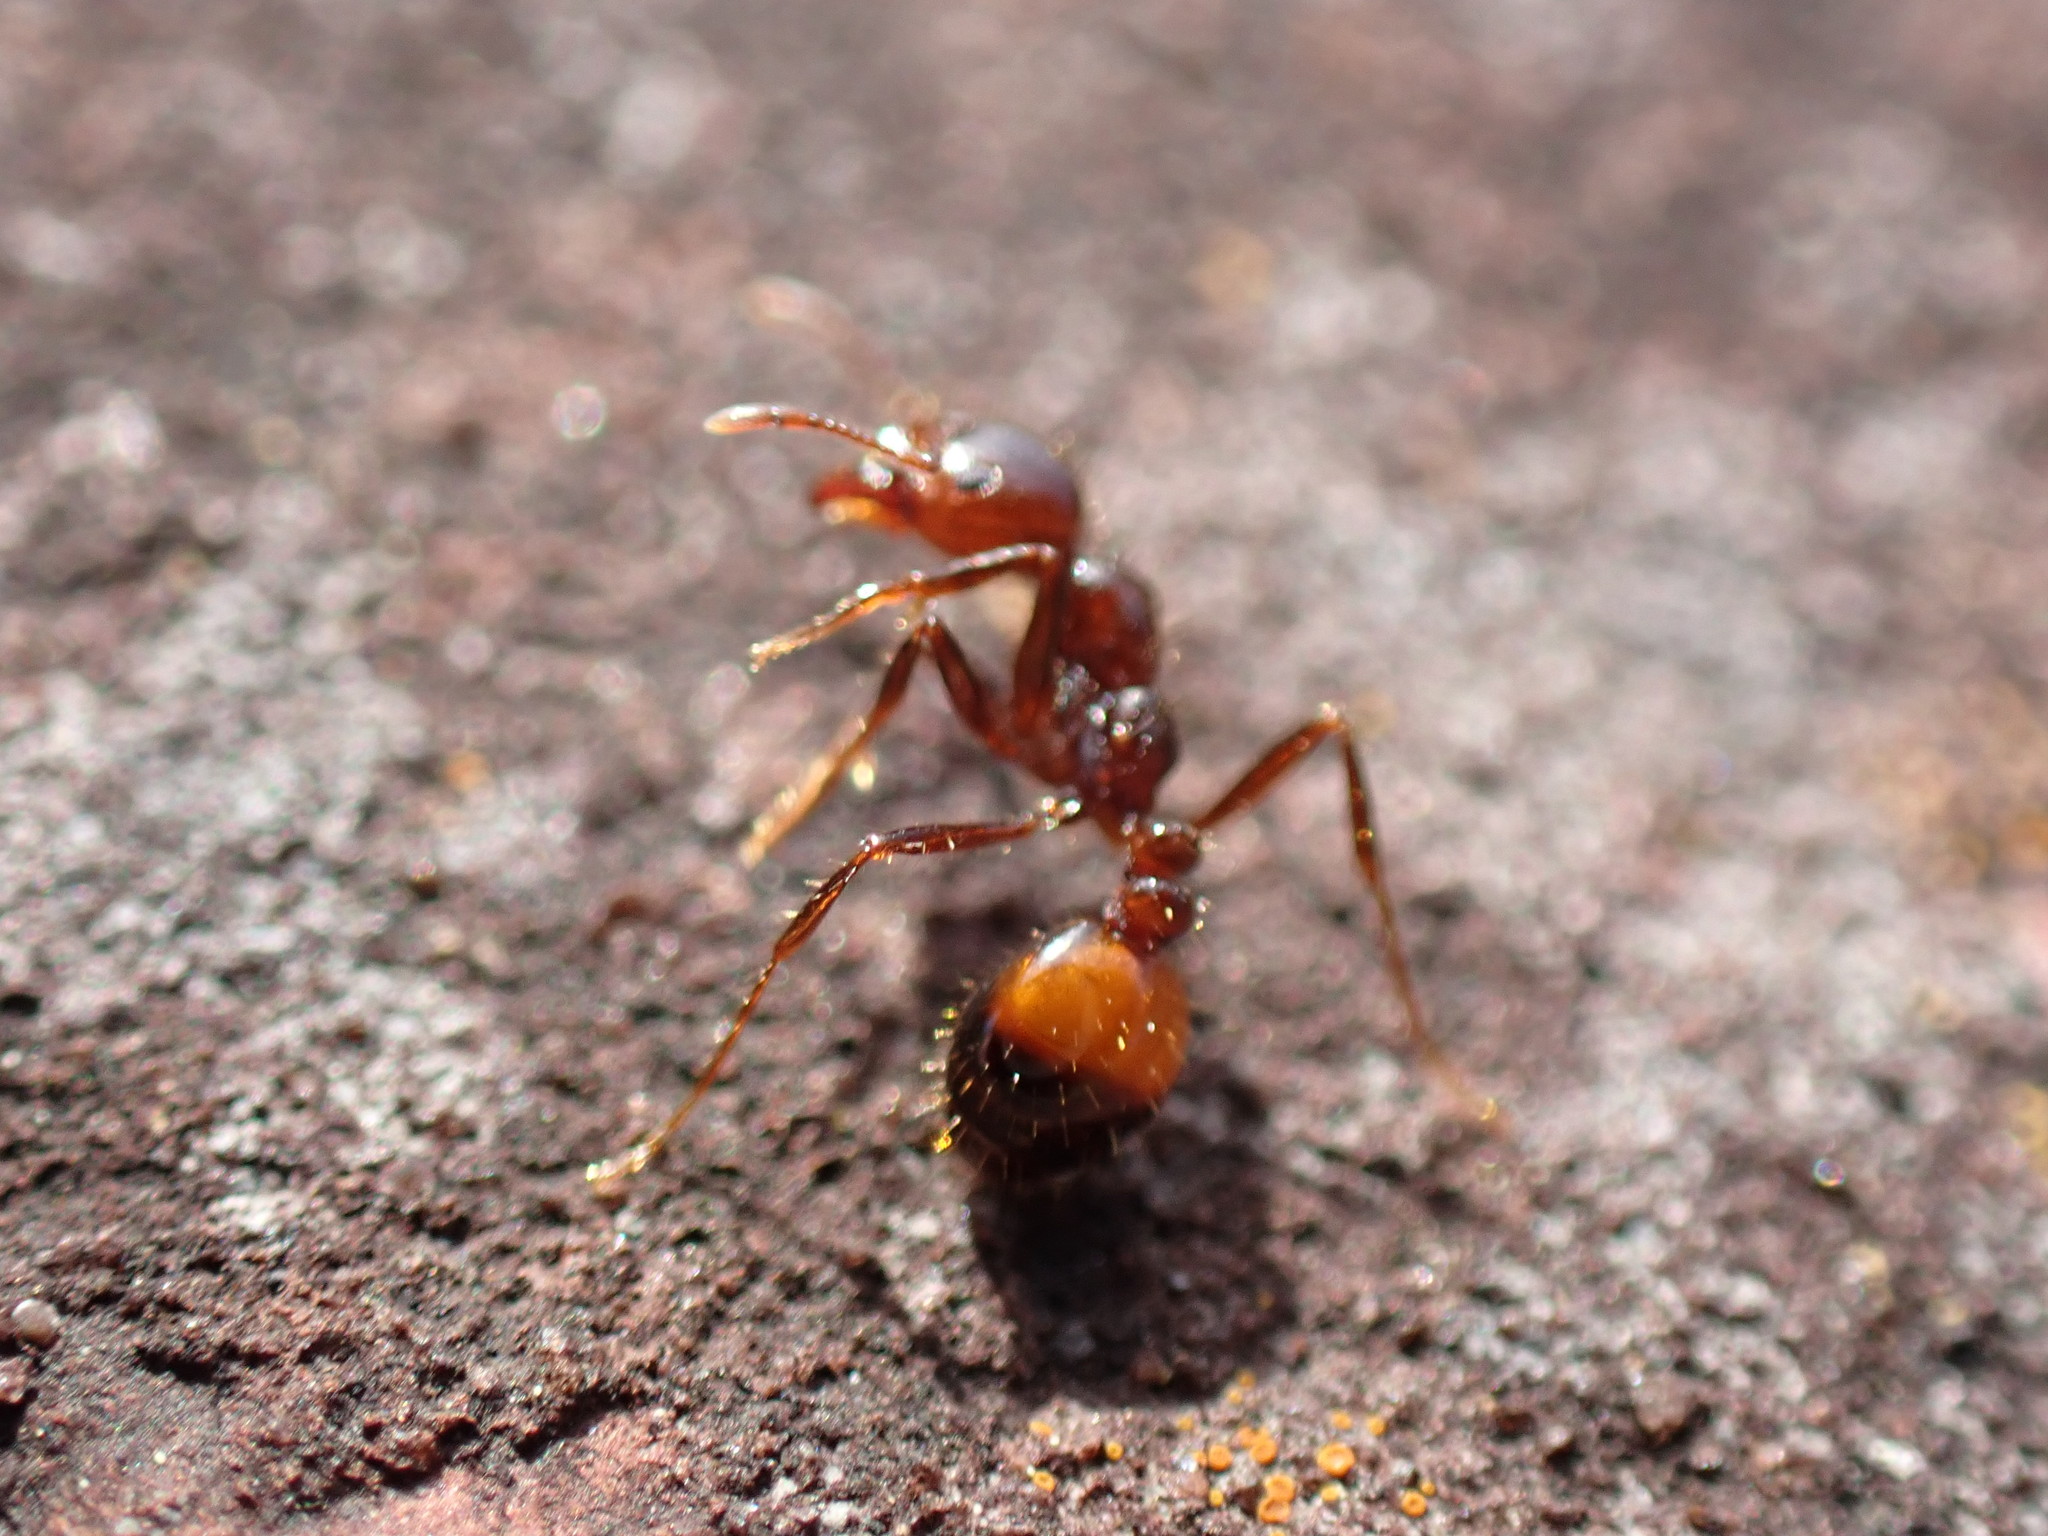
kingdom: Animalia
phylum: Arthropoda
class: Insecta
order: Hymenoptera
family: Formicidae
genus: Solenopsis
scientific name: Solenopsis
